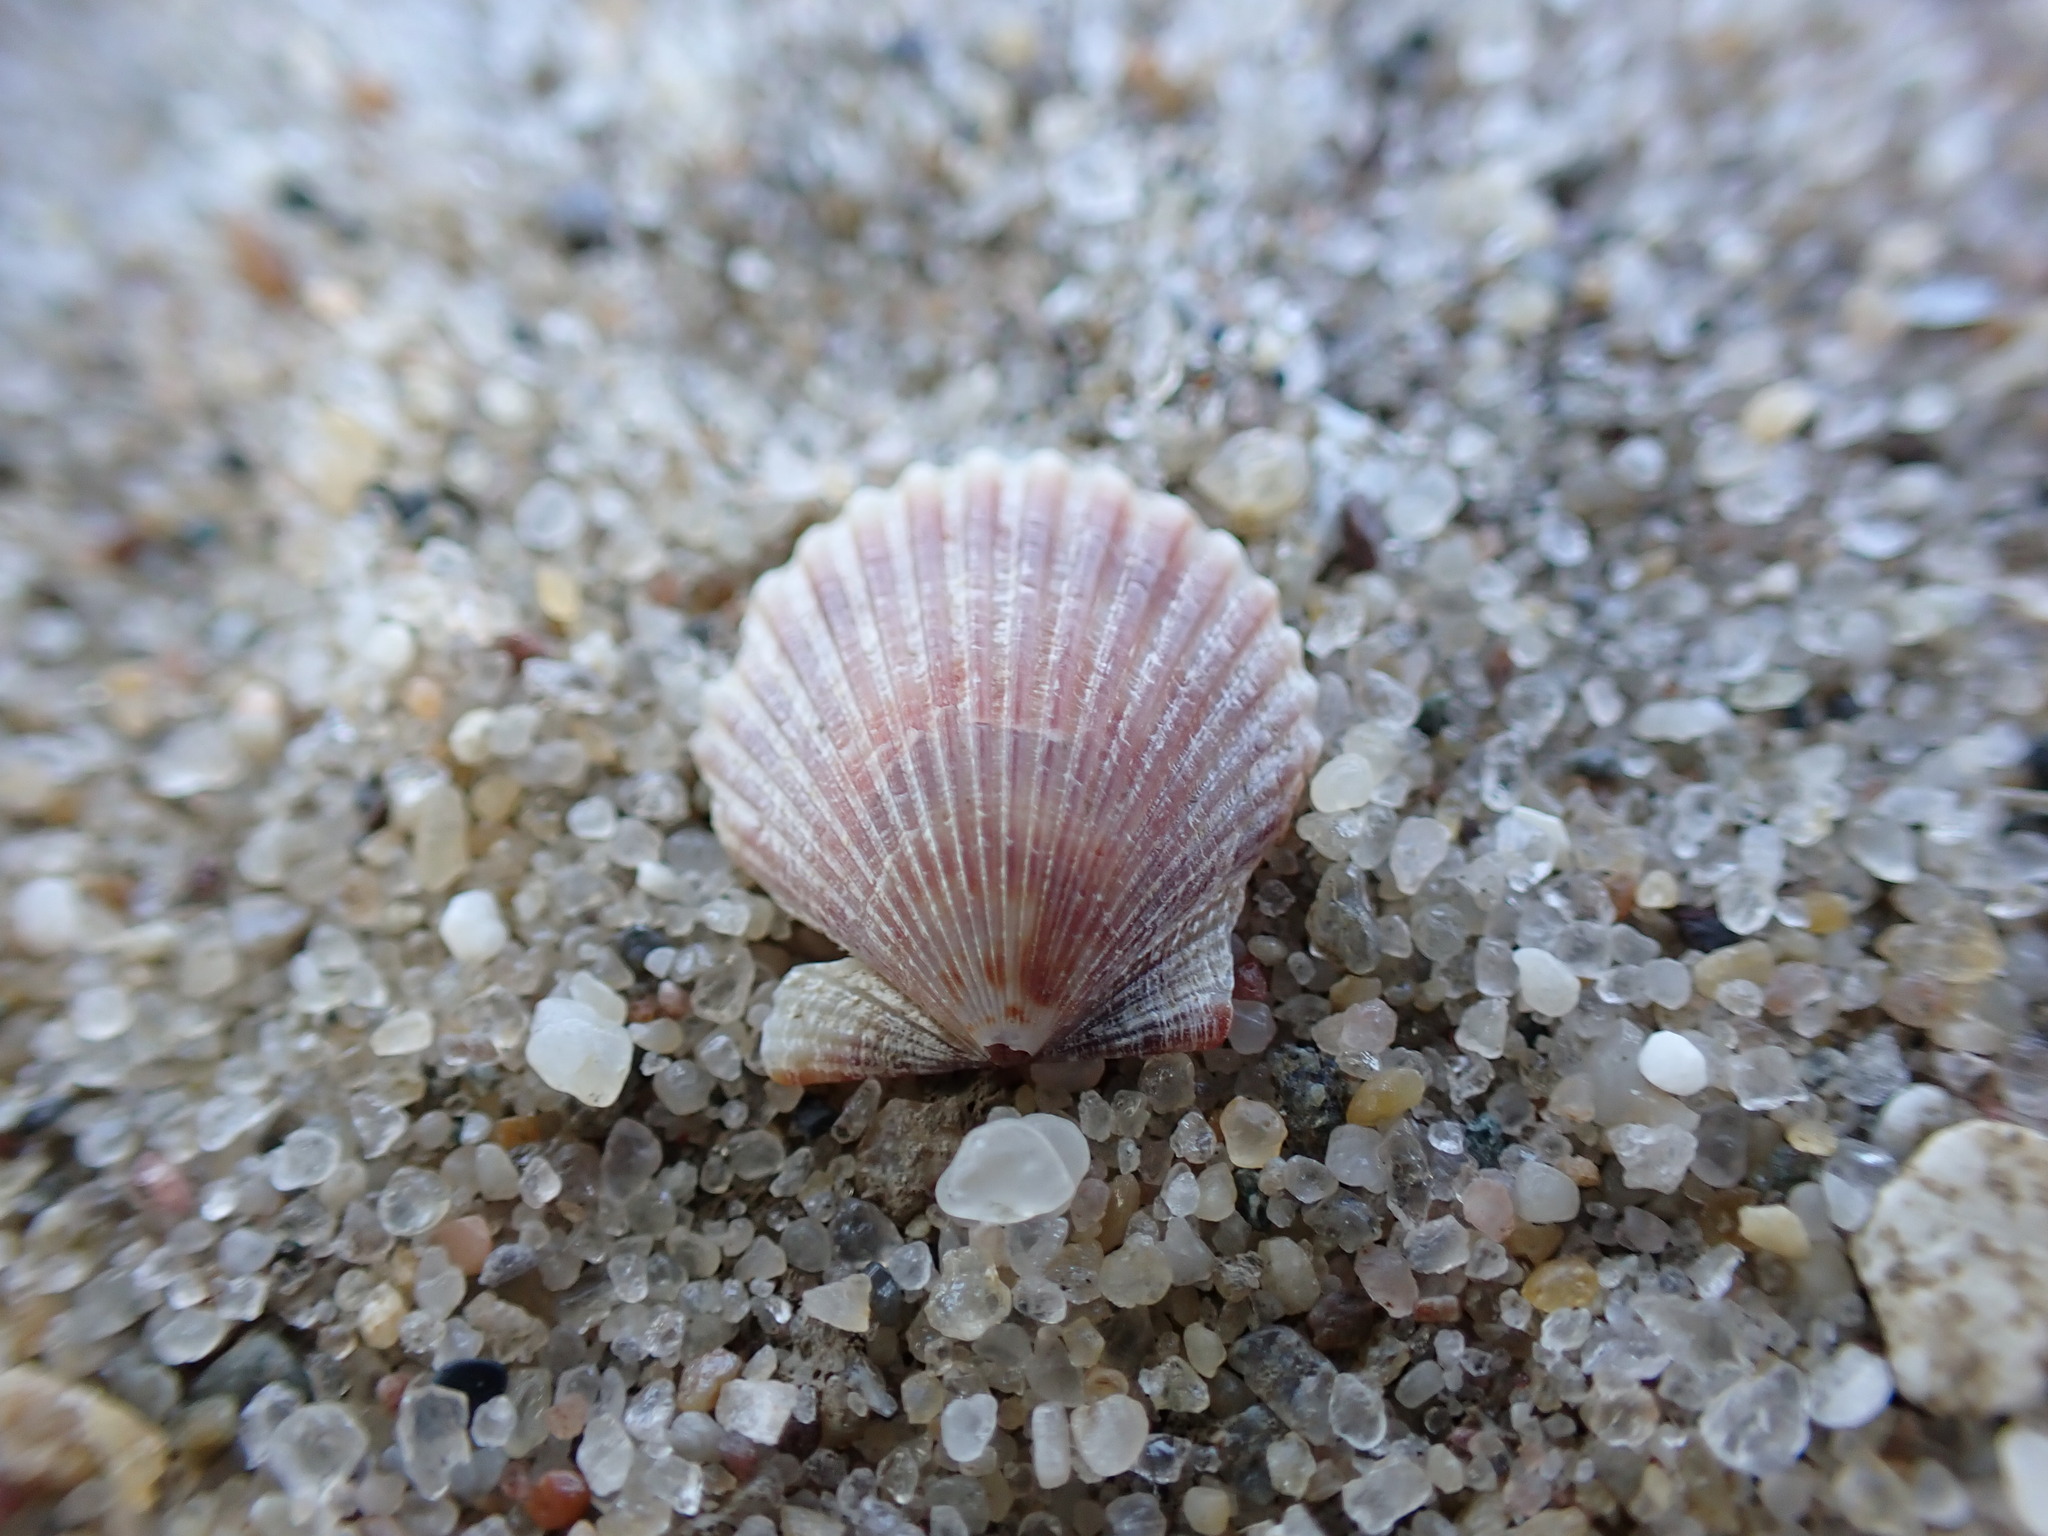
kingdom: Animalia
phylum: Mollusca
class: Bivalvia
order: Pectinida
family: Pectinidae
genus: Argopecten
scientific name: Argopecten irradians
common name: Atlantic bay scallop
